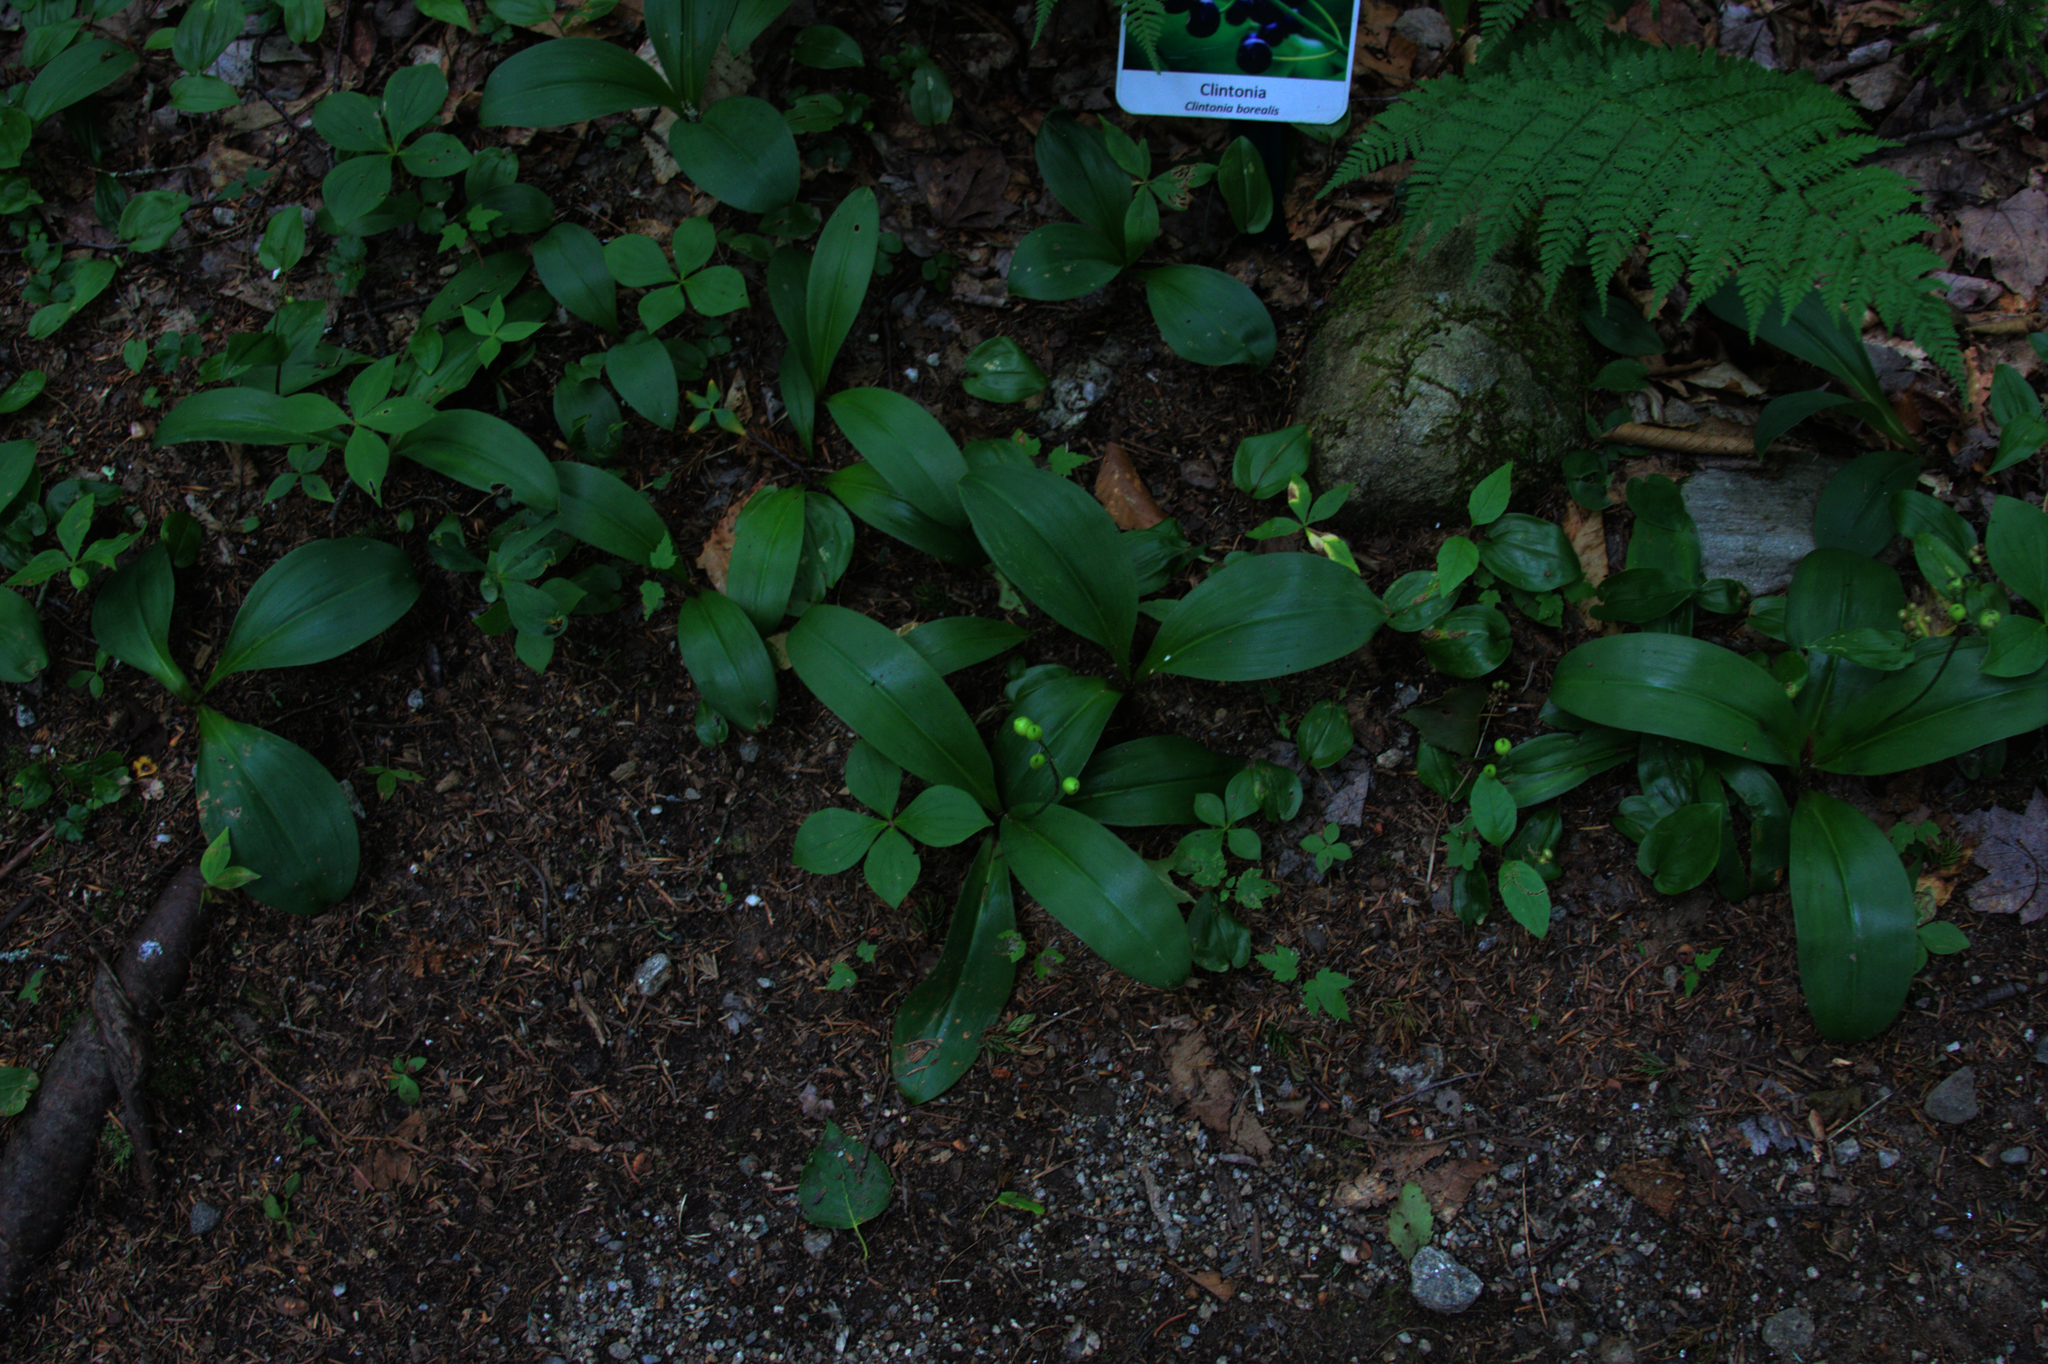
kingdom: Plantae
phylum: Tracheophyta
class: Liliopsida
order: Liliales
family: Liliaceae
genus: Clintonia
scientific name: Clintonia borealis
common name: Yellow clintonia
